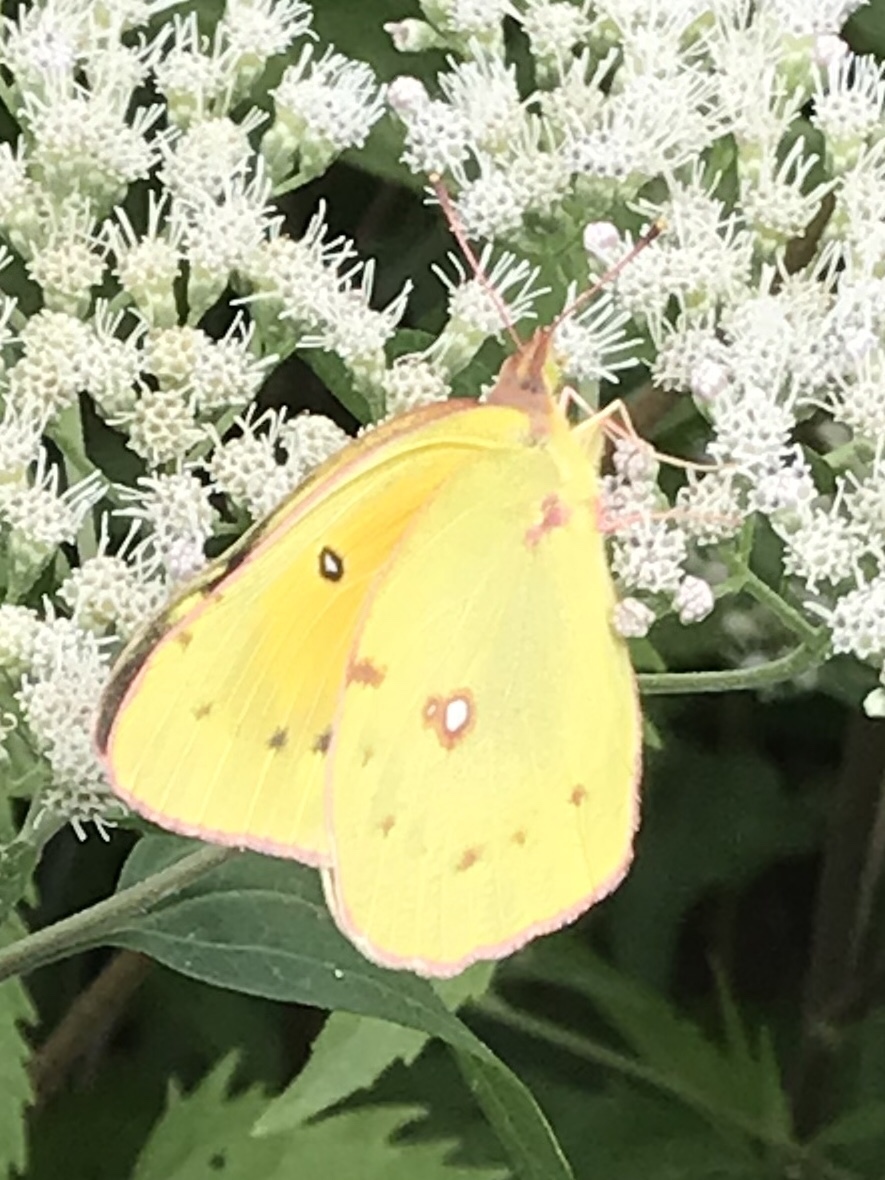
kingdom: Animalia
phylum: Arthropoda
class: Insecta
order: Lepidoptera
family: Pieridae
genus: Colias
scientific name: Colias eurytheme
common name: Alfalfa butterfly
